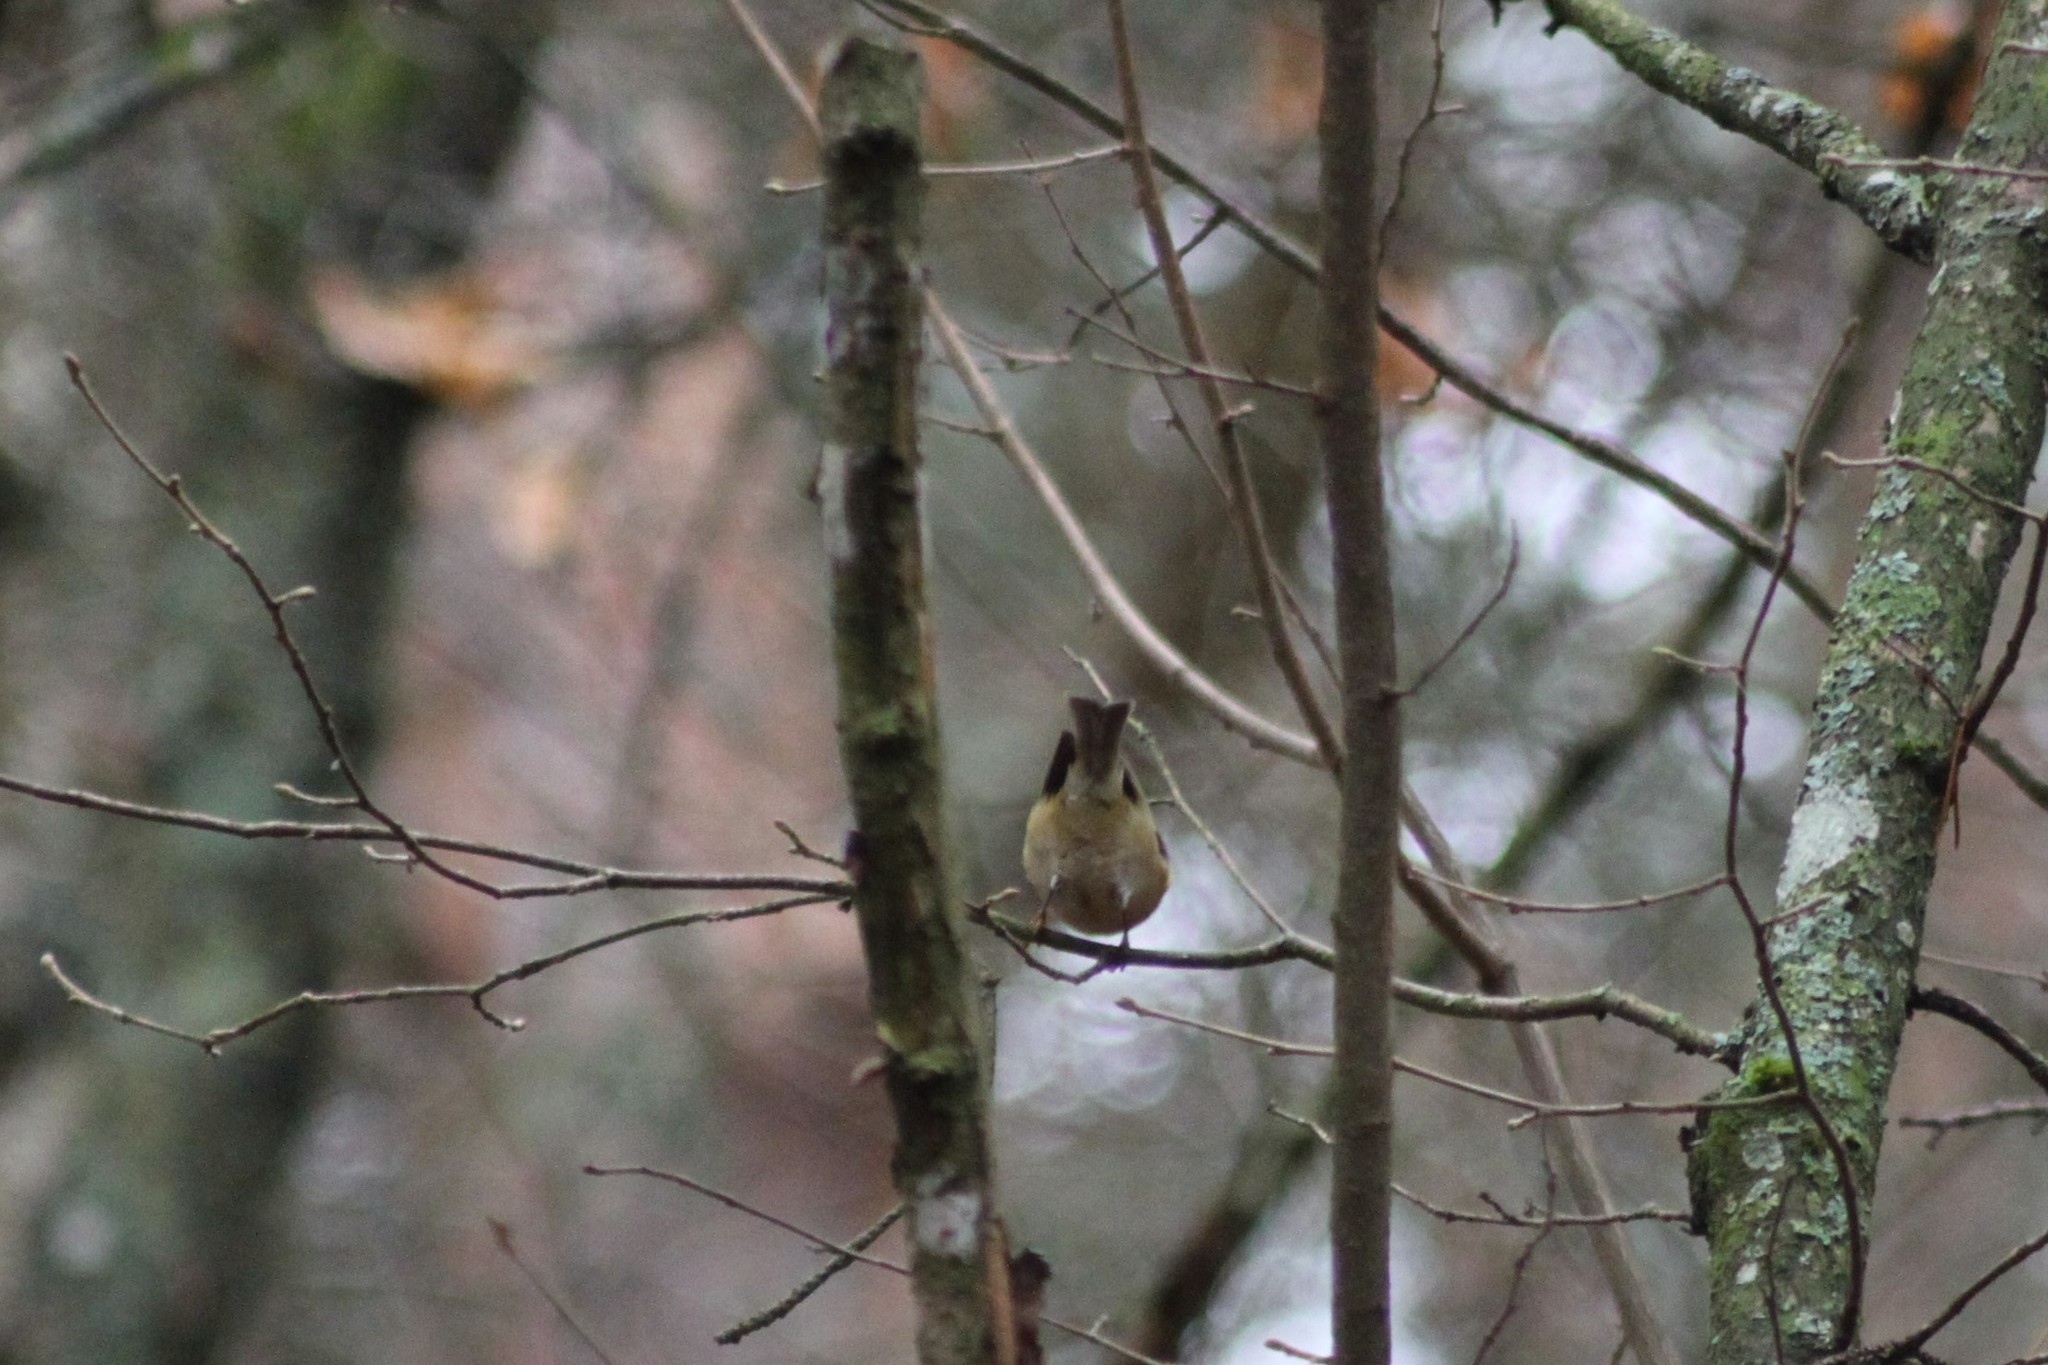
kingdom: Animalia
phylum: Chordata
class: Aves
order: Passeriformes
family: Regulidae
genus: Regulus
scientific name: Regulus regulus
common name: Goldcrest
